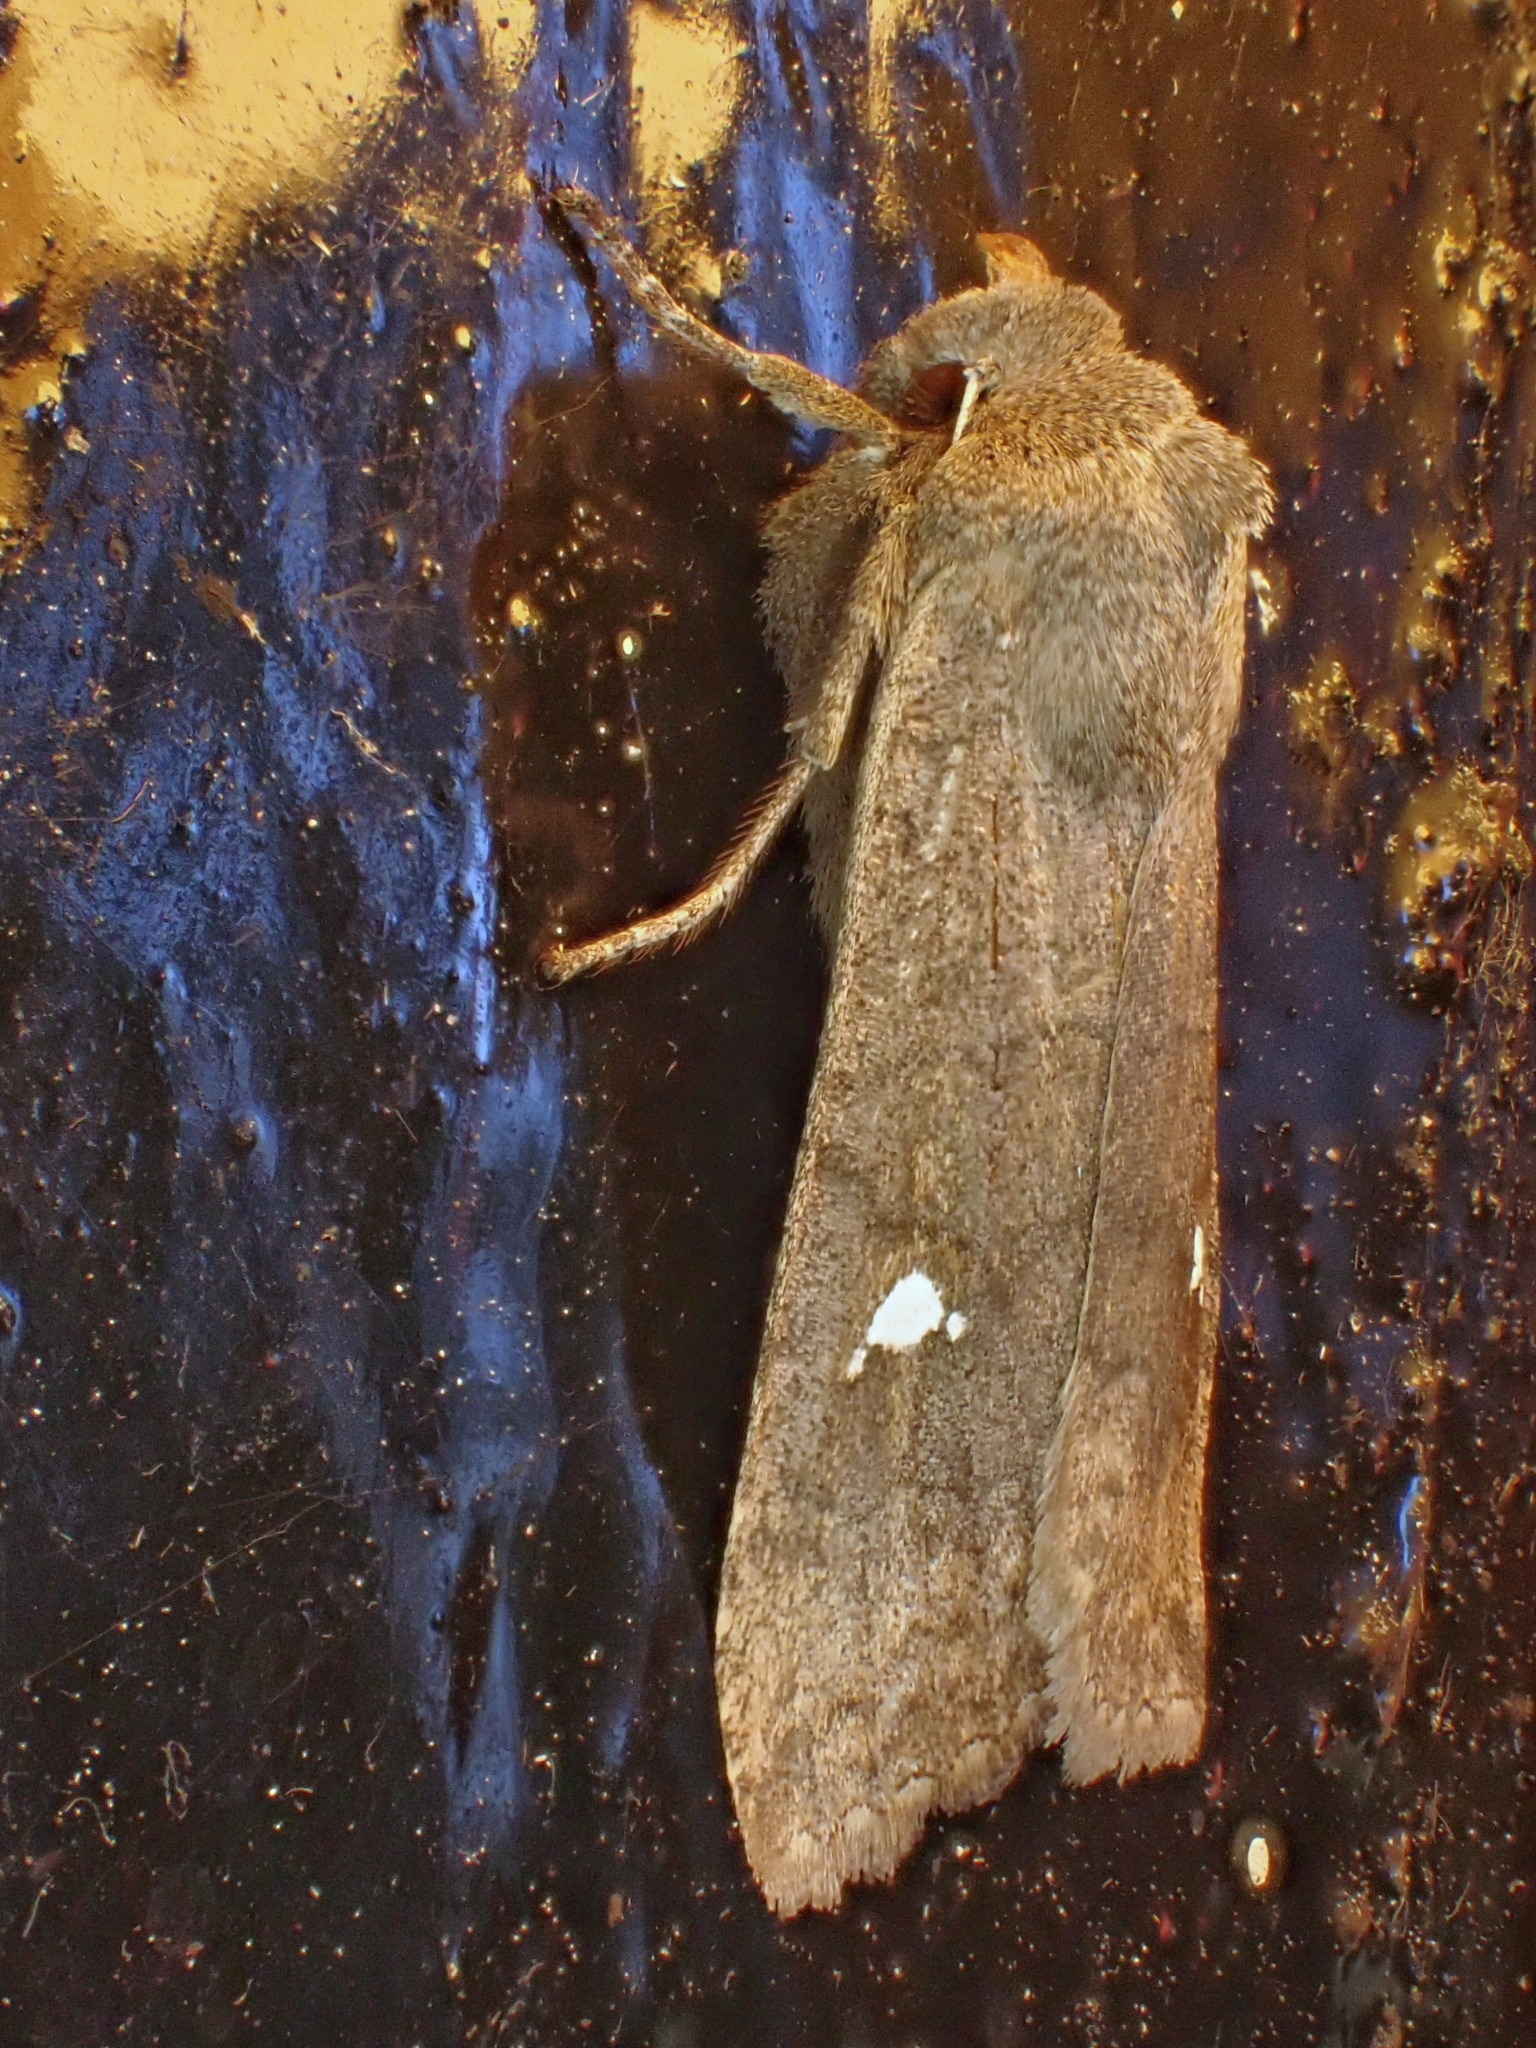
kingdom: Animalia
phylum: Arthropoda
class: Insecta
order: Lepidoptera
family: Noctuidae
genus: Eupsilia
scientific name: Eupsilia transversa
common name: Satellite
